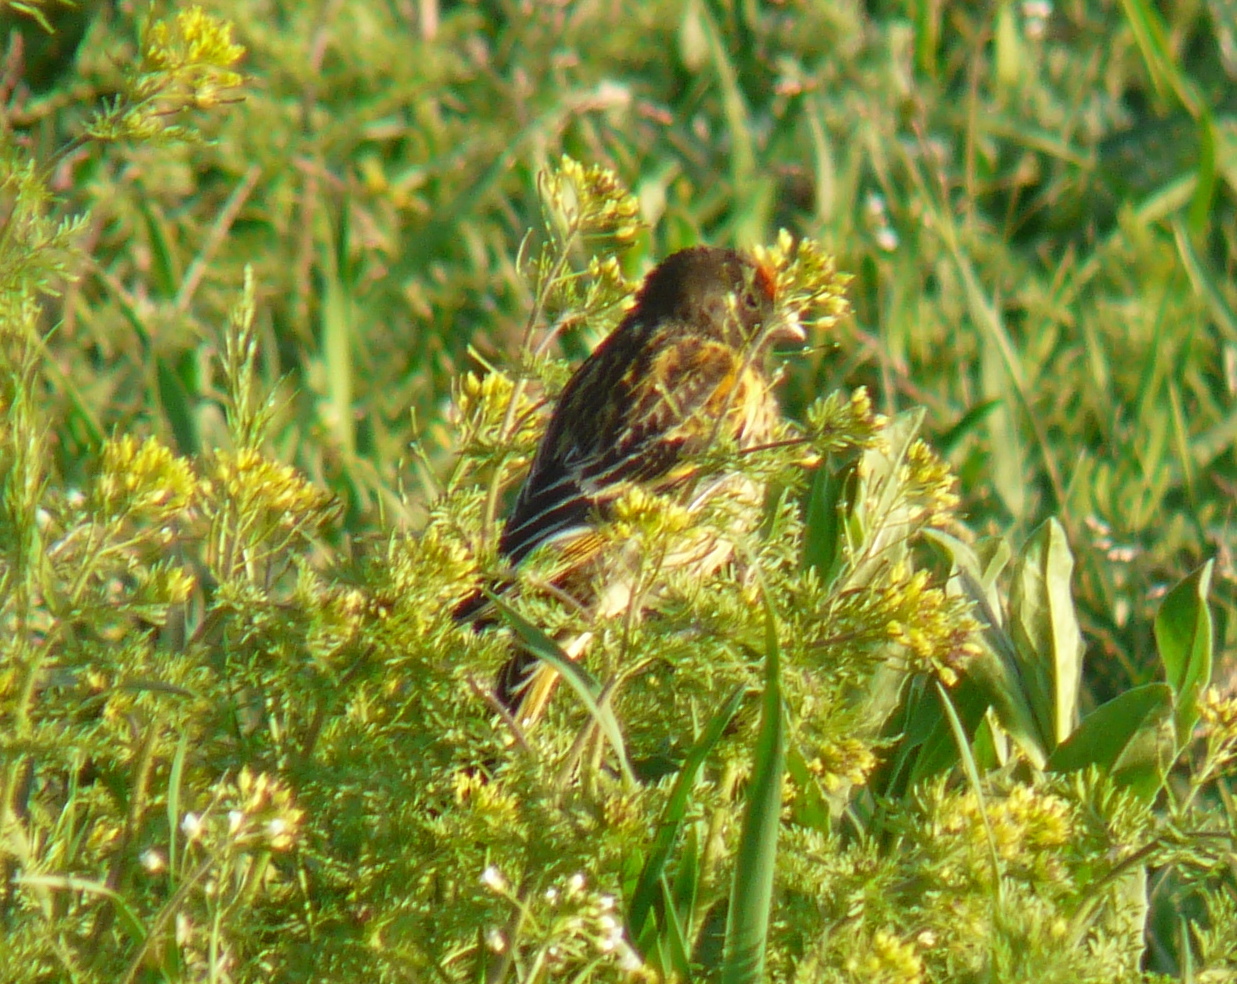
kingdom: Animalia
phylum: Chordata
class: Aves
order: Passeriformes
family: Fringillidae
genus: Serinus
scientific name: Serinus pusillus
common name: Red-fronted serin
